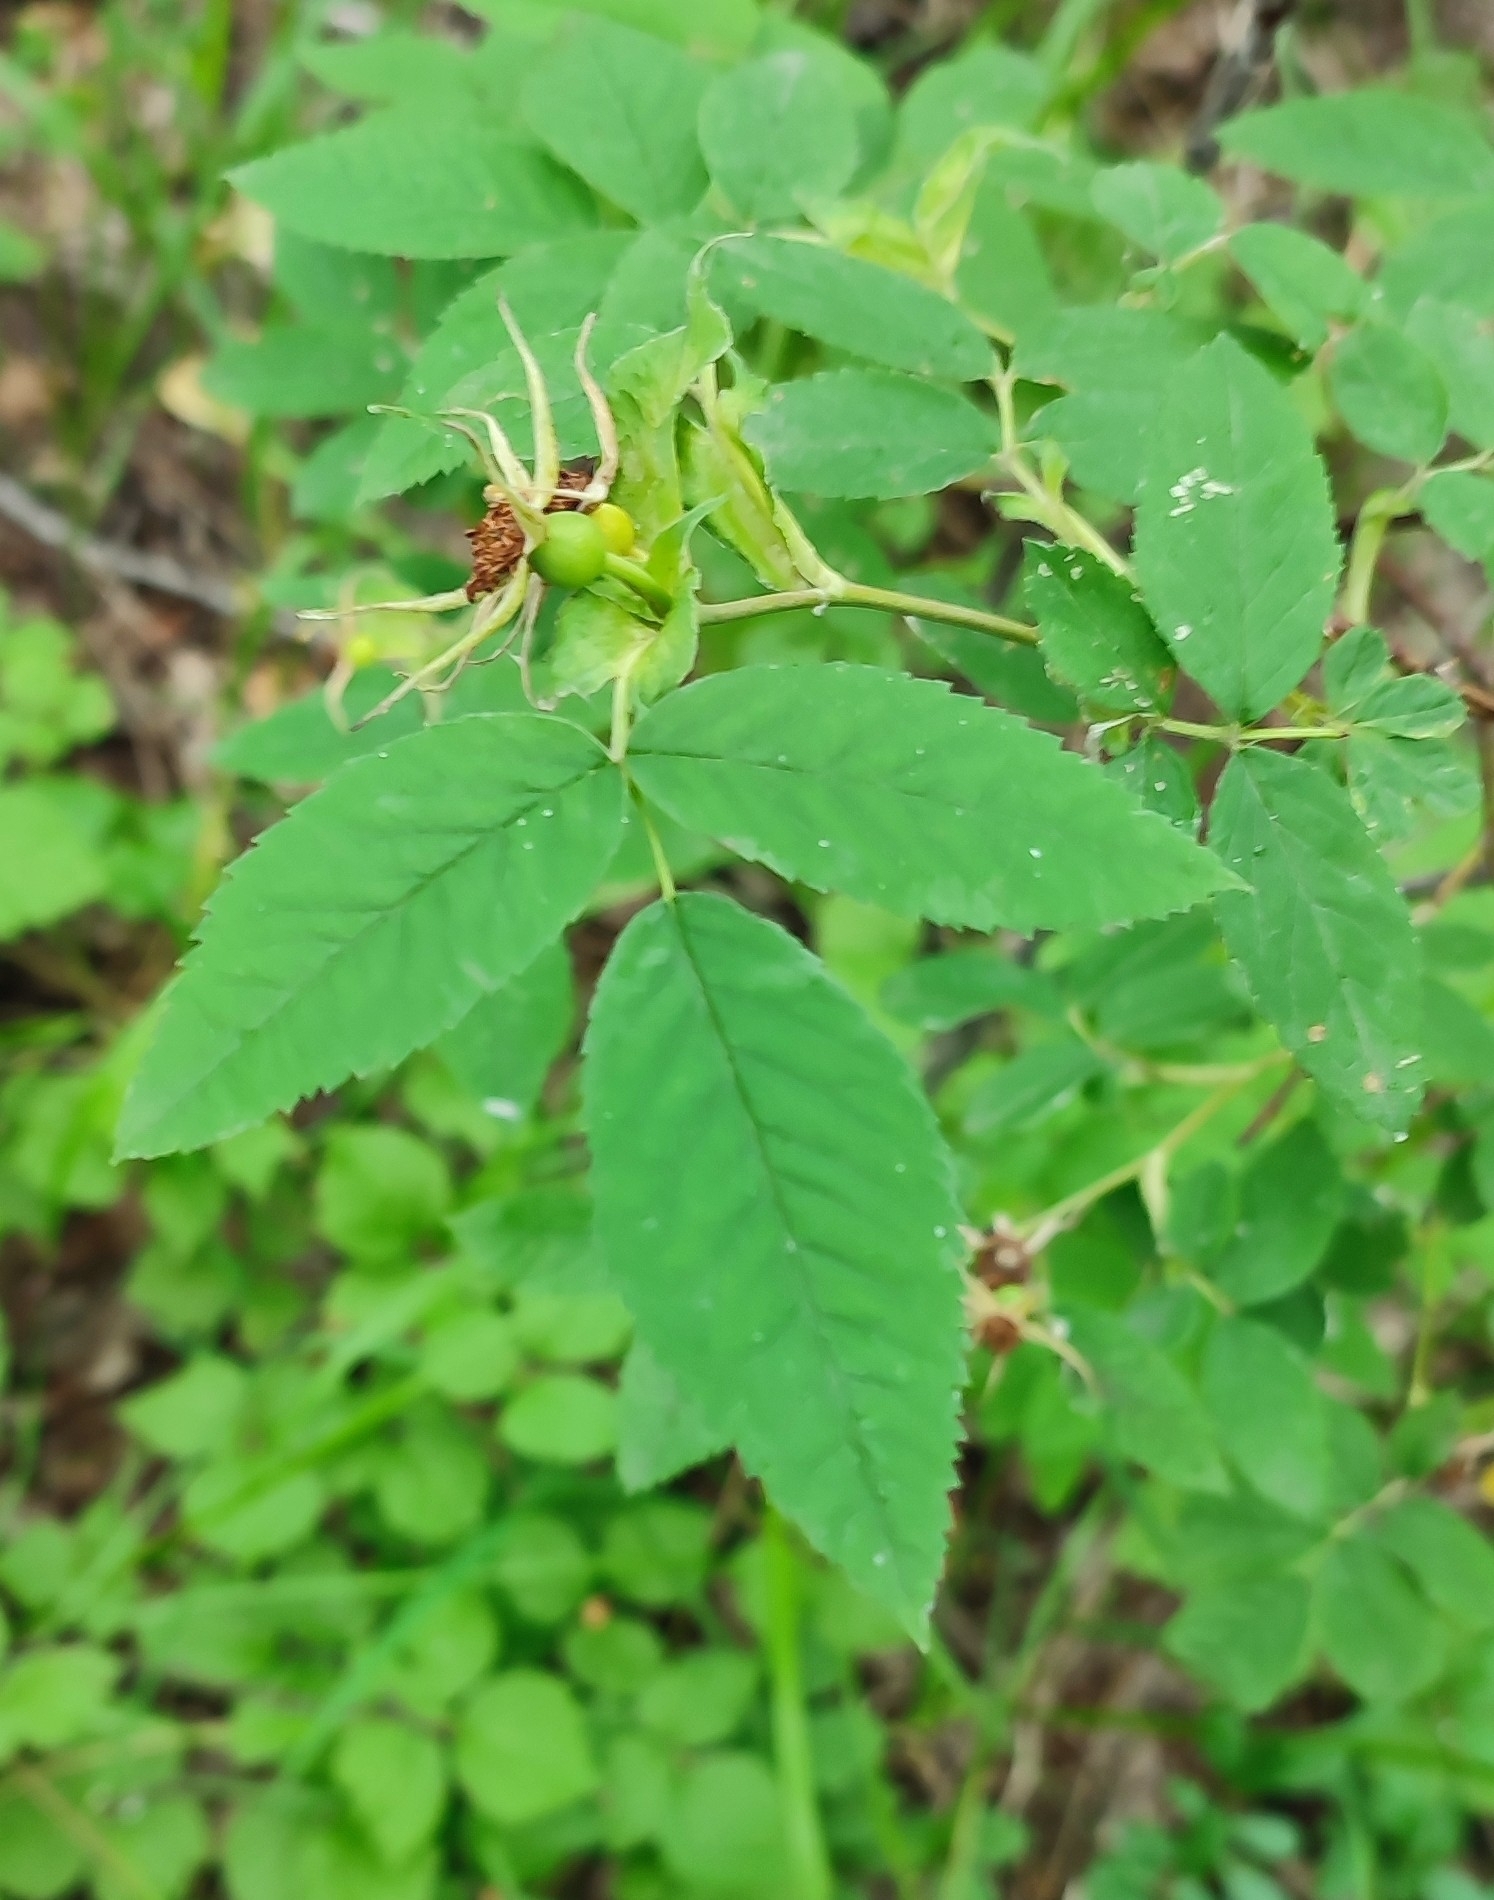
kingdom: Plantae
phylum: Tracheophyta
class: Magnoliopsida
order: Rosales
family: Rosaceae
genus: Rosa
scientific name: Rosa majalis
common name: Cinnamon rose
